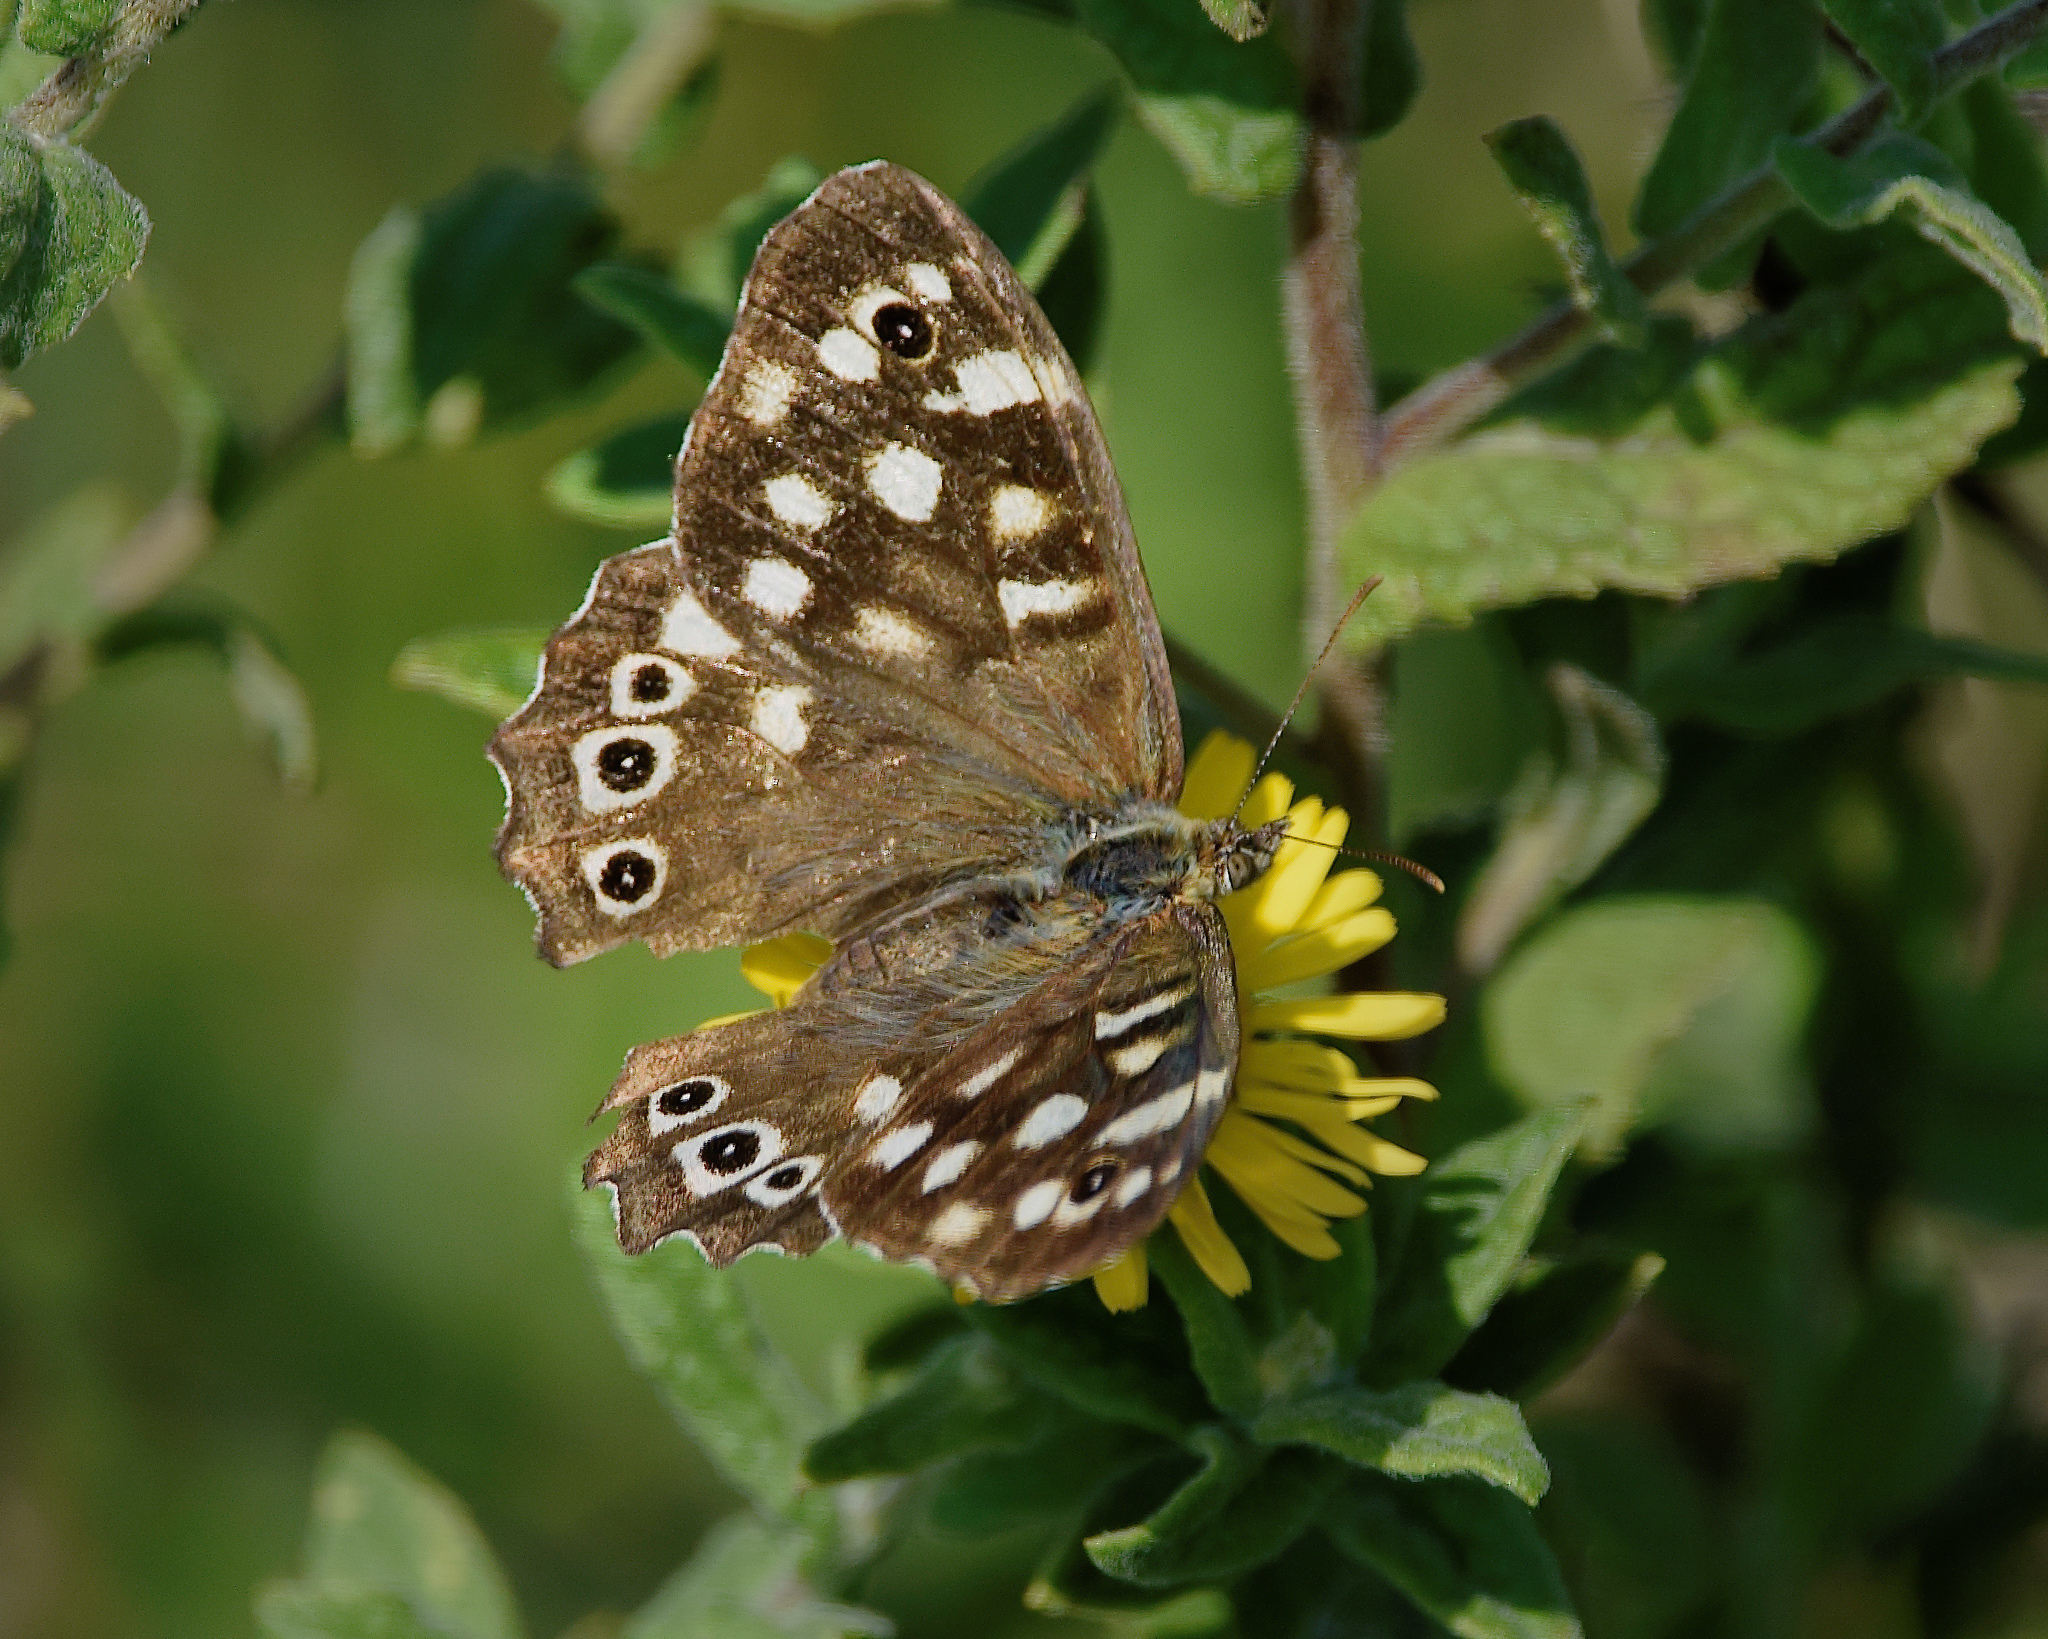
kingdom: Animalia
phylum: Arthropoda
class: Insecta
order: Lepidoptera
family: Nymphalidae
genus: Pararge
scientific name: Pararge aegeria
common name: Speckled wood
